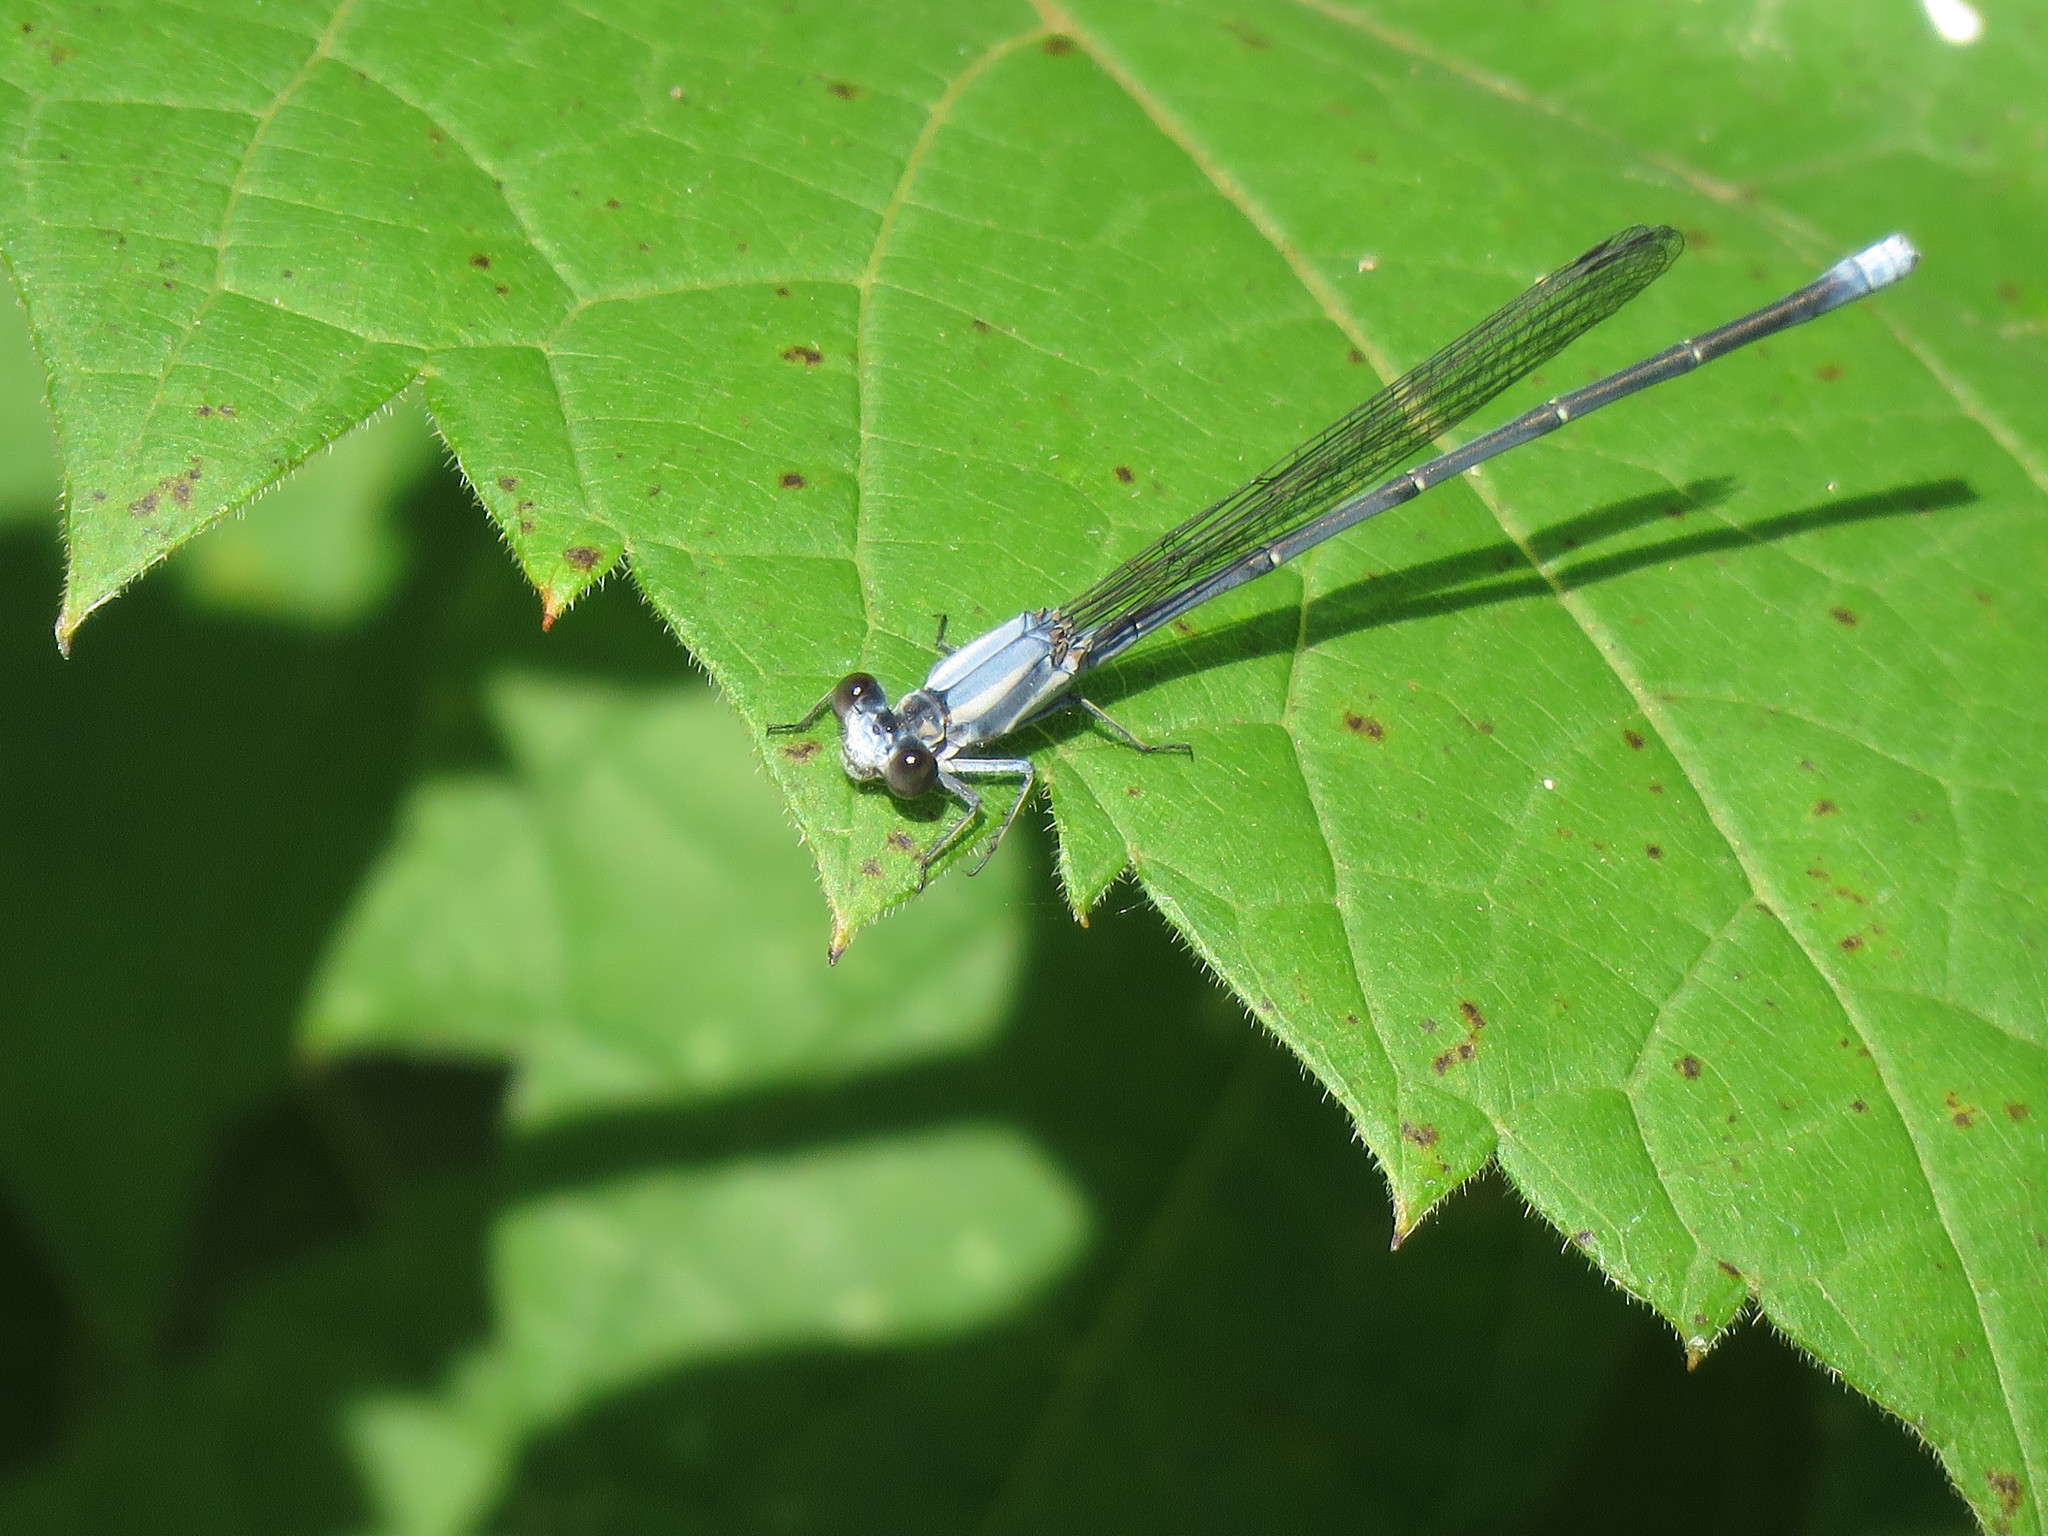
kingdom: Animalia
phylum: Arthropoda
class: Insecta
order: Odonata
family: Coenagrionidae
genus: Argia
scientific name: Argia moesta
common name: Powdered dancer
